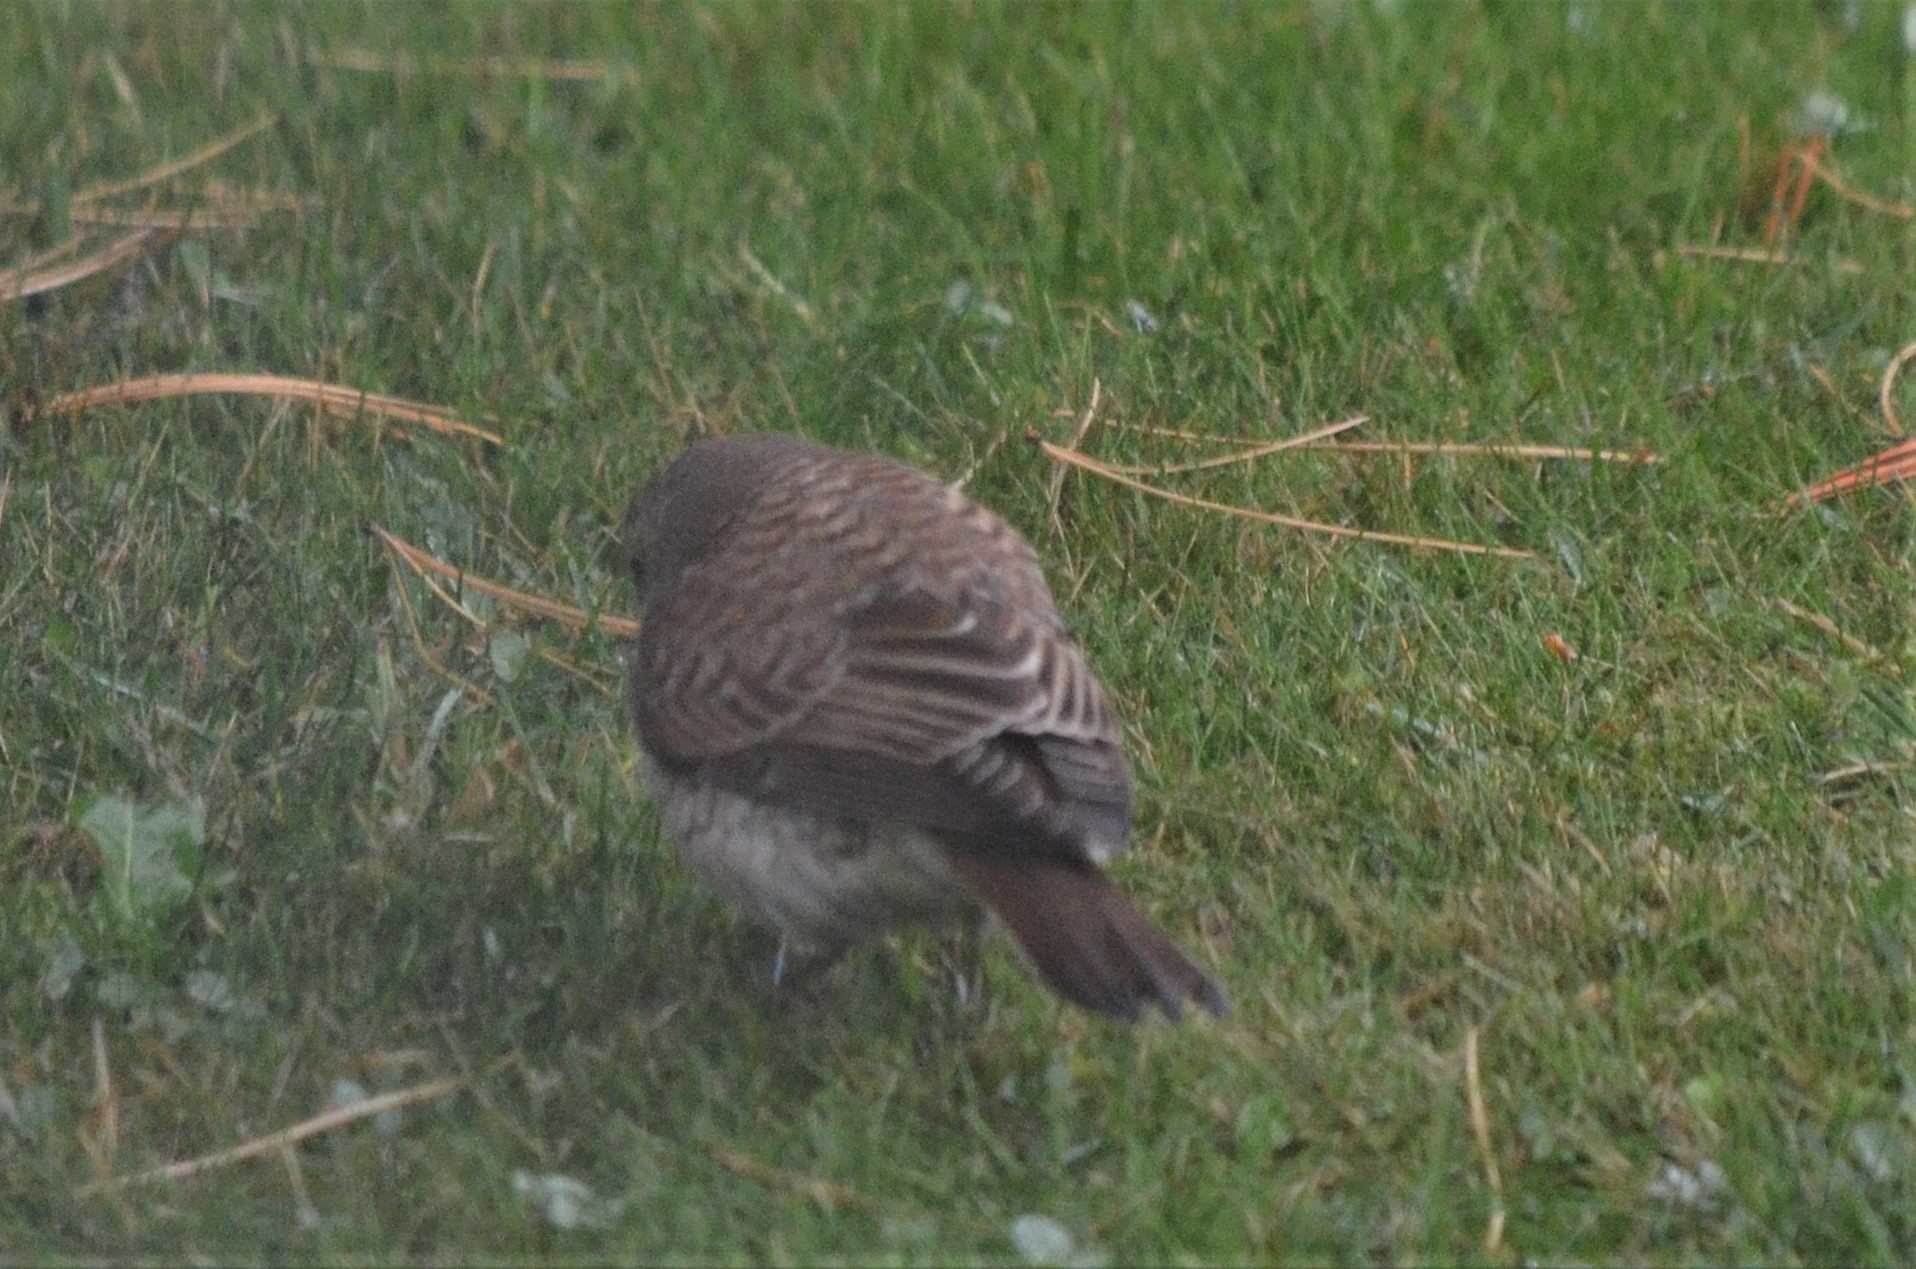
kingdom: Animalia
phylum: Chordata
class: Aves
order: Passeriformes
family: Laniidae
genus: Lanius
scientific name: Lanius collurio
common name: Red-backed shrike
